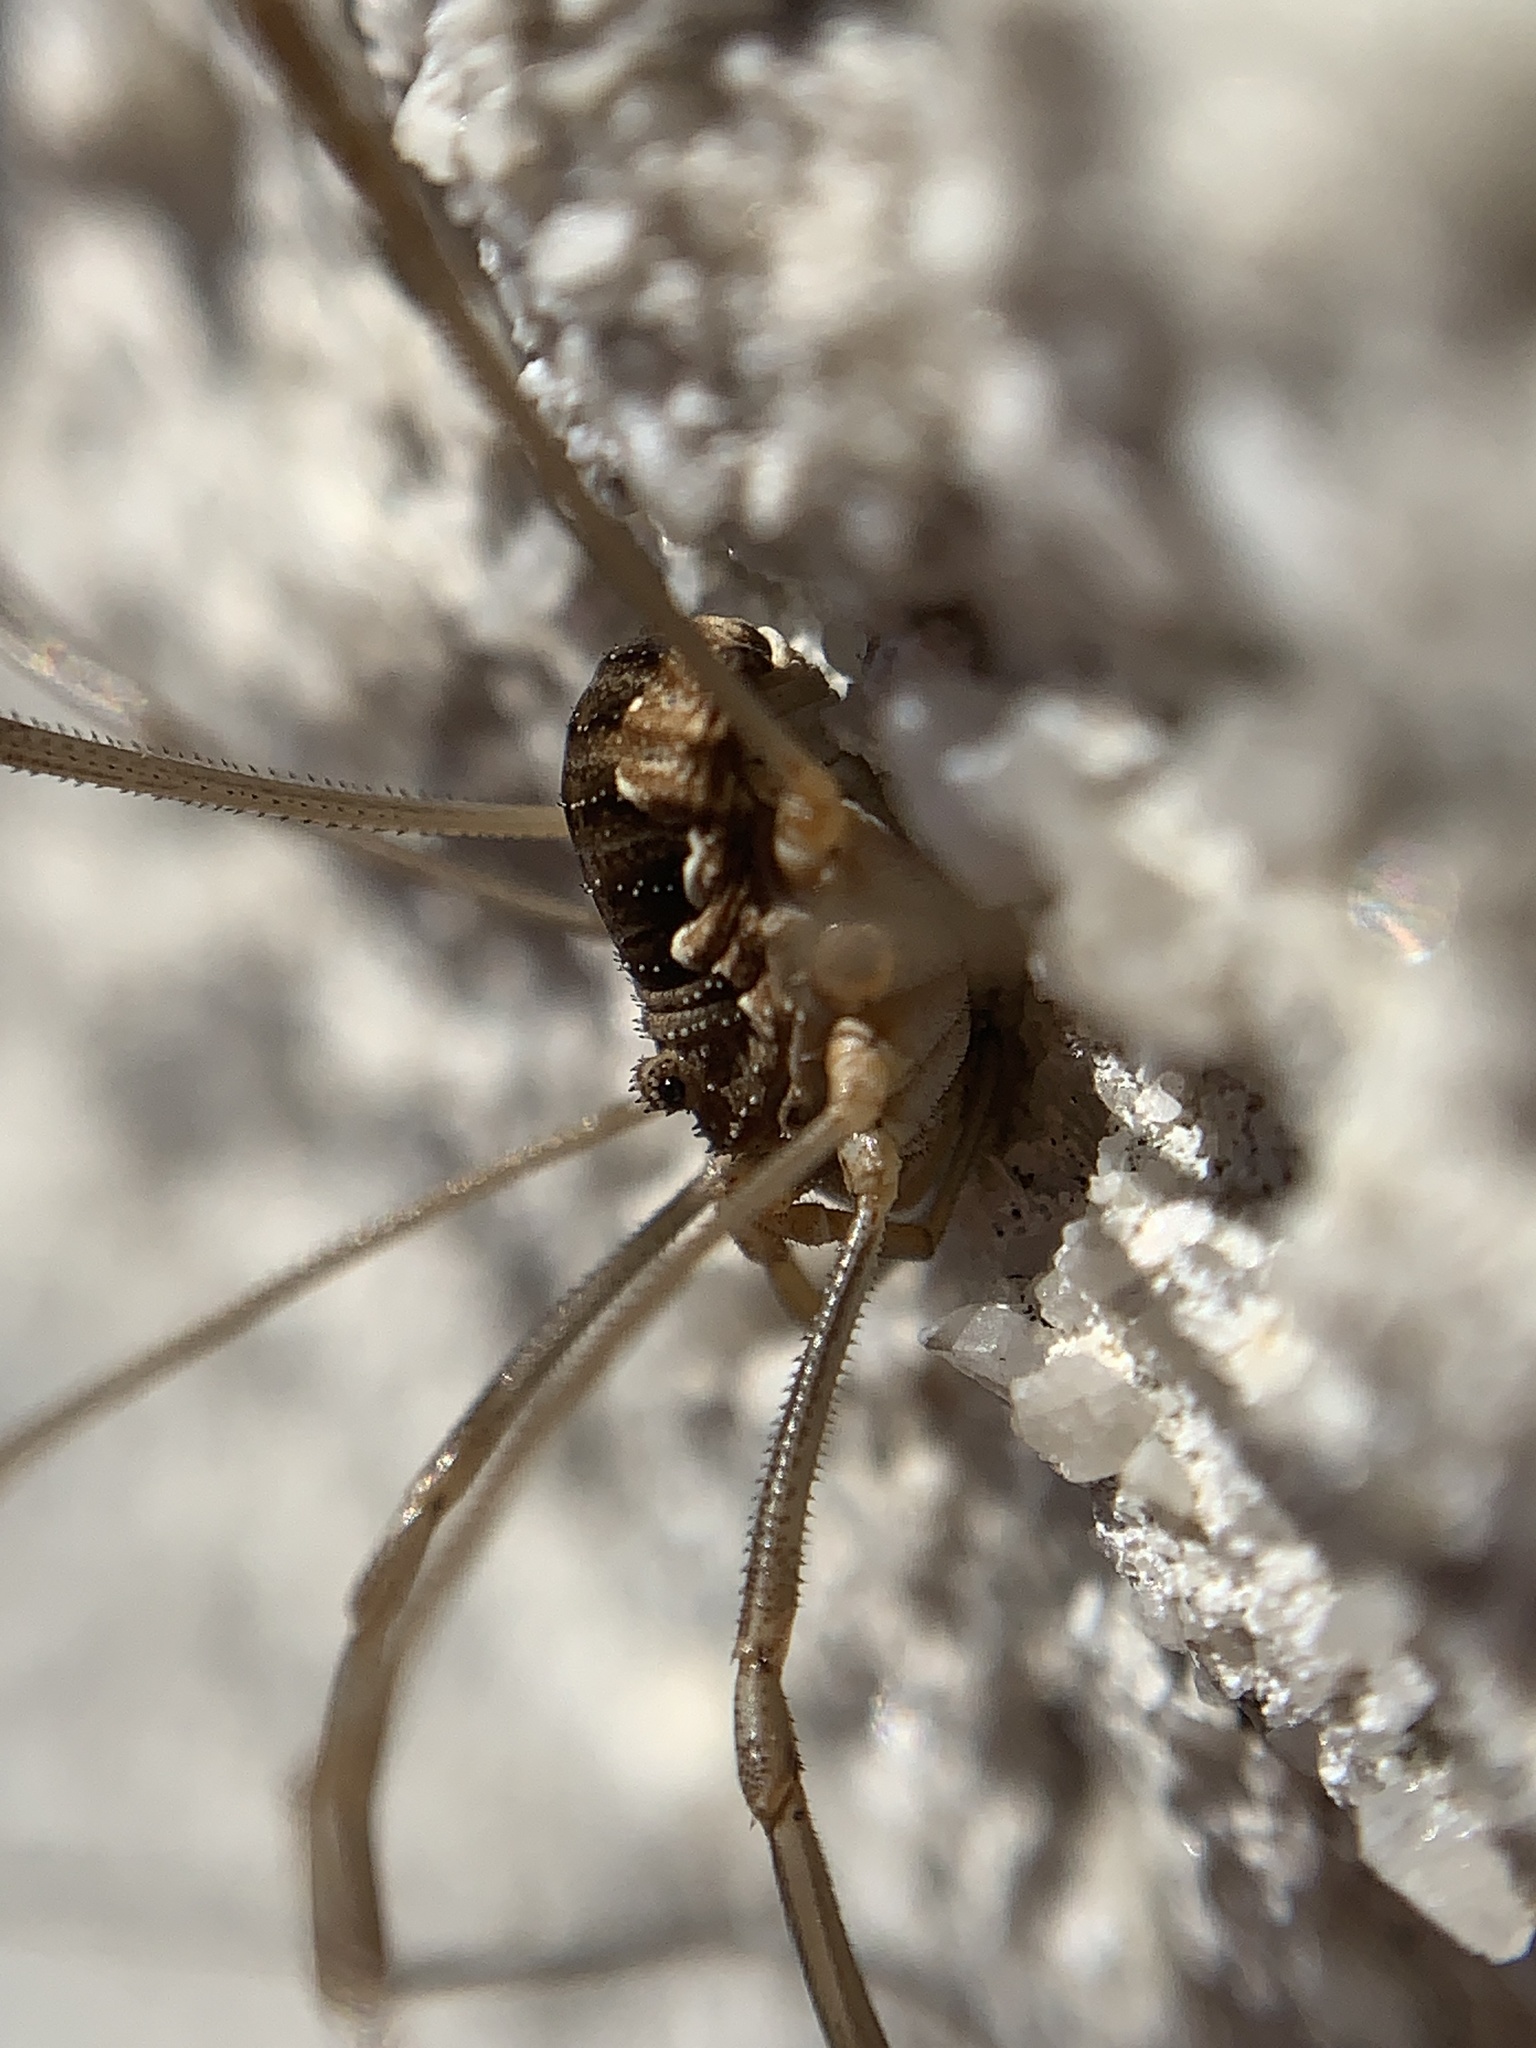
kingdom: Animalia
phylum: Arthropoda
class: Arachnida
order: Opiliones
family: Phalangiidae
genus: Phalangium
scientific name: Phalangium opilio
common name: Daddy longleg
